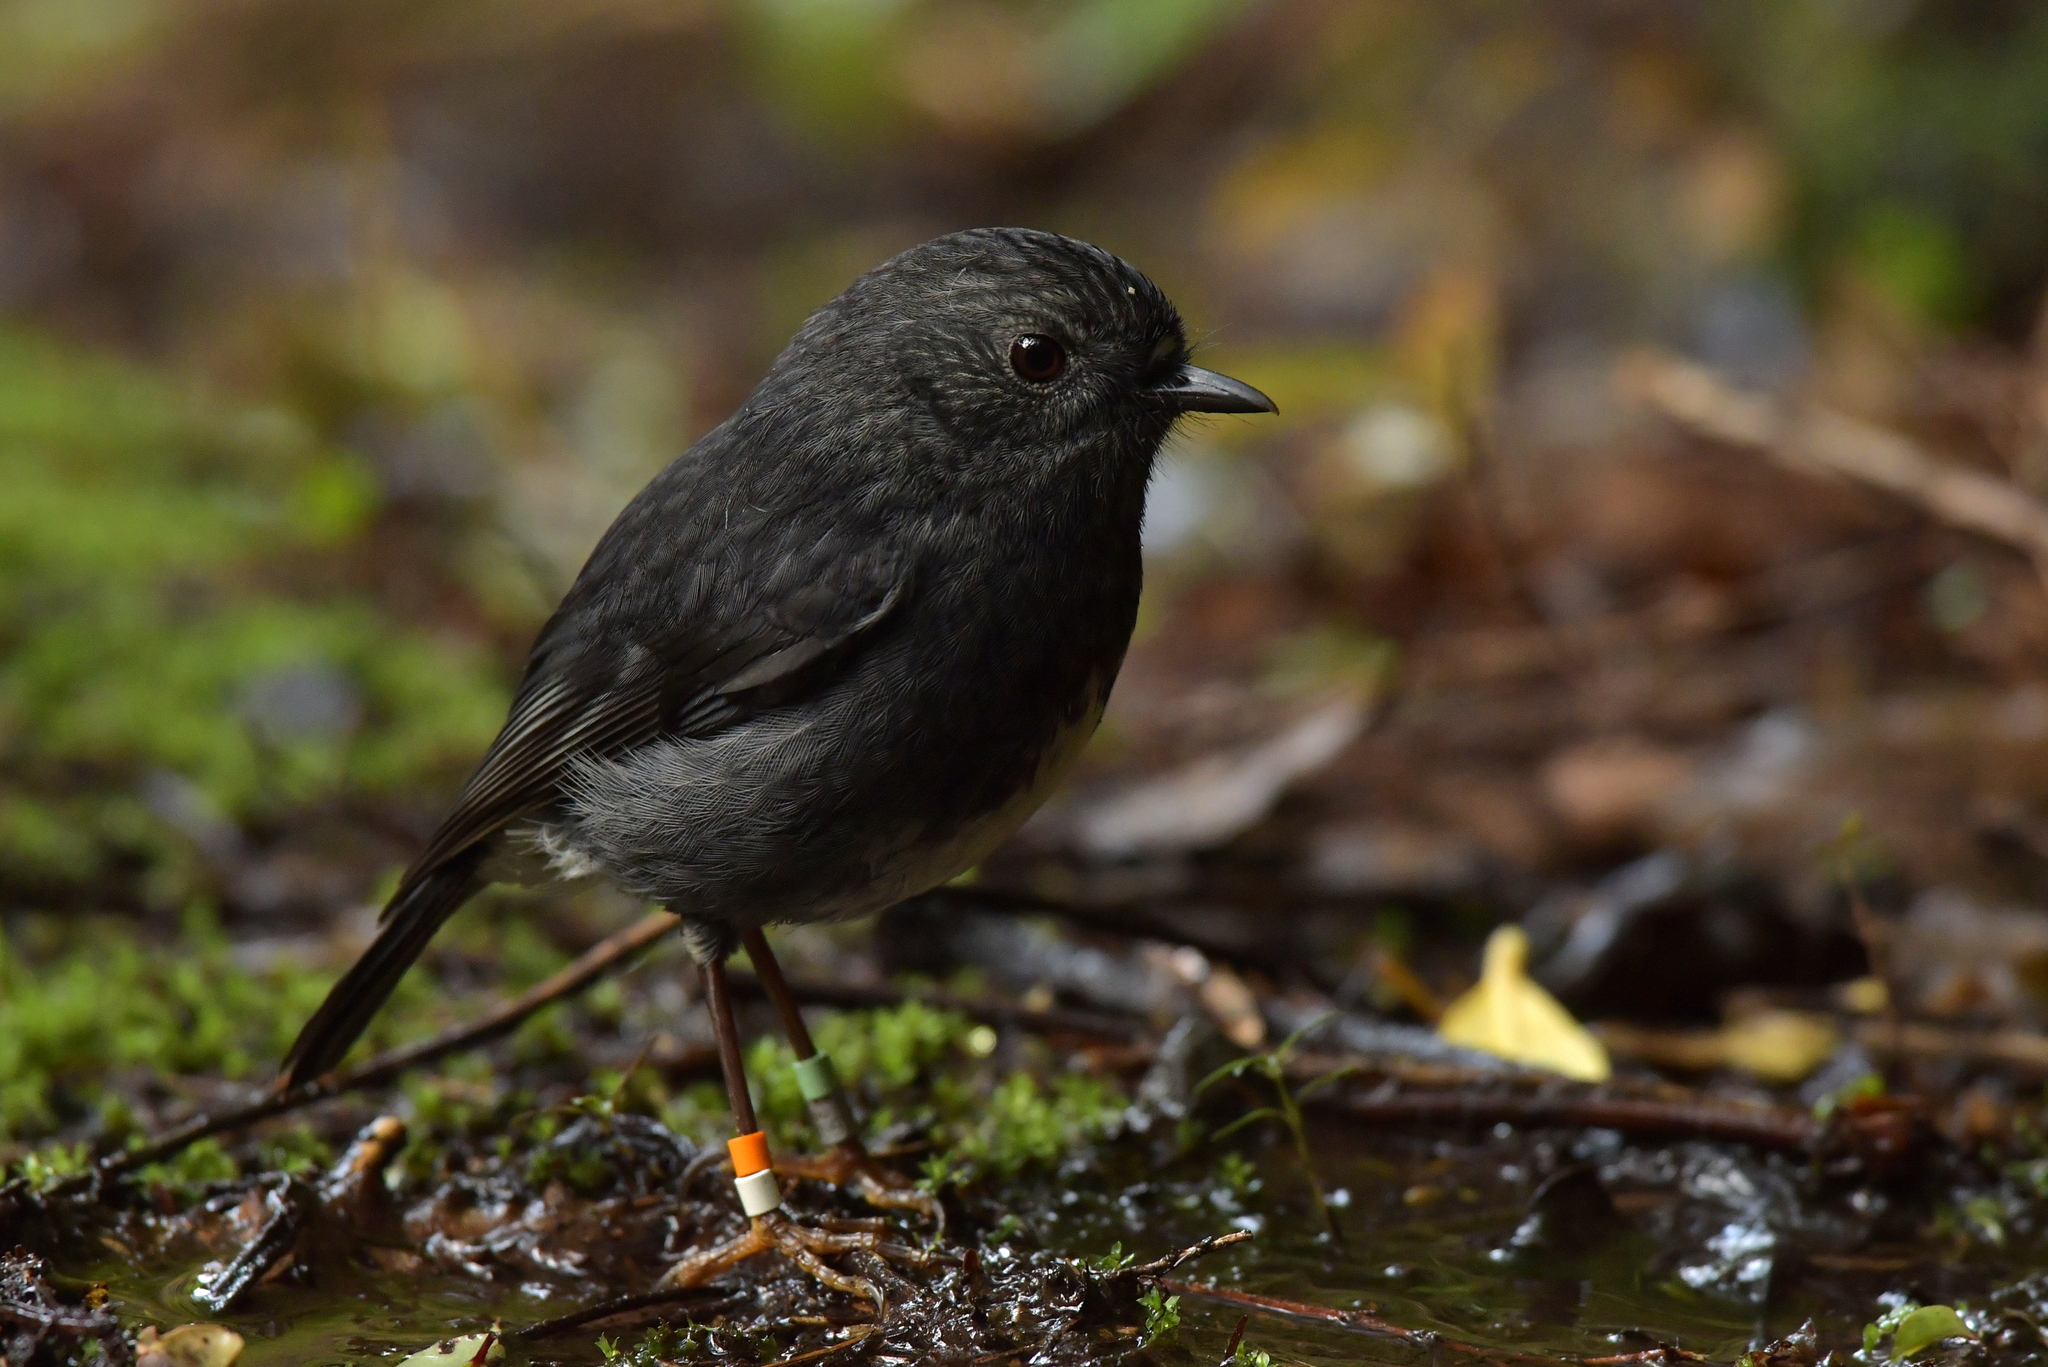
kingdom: Animalia
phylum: Chordata
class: Aves
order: Passeriformes
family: Petroicidae
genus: Petroica
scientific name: Petroica australis
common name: New zealand robin
